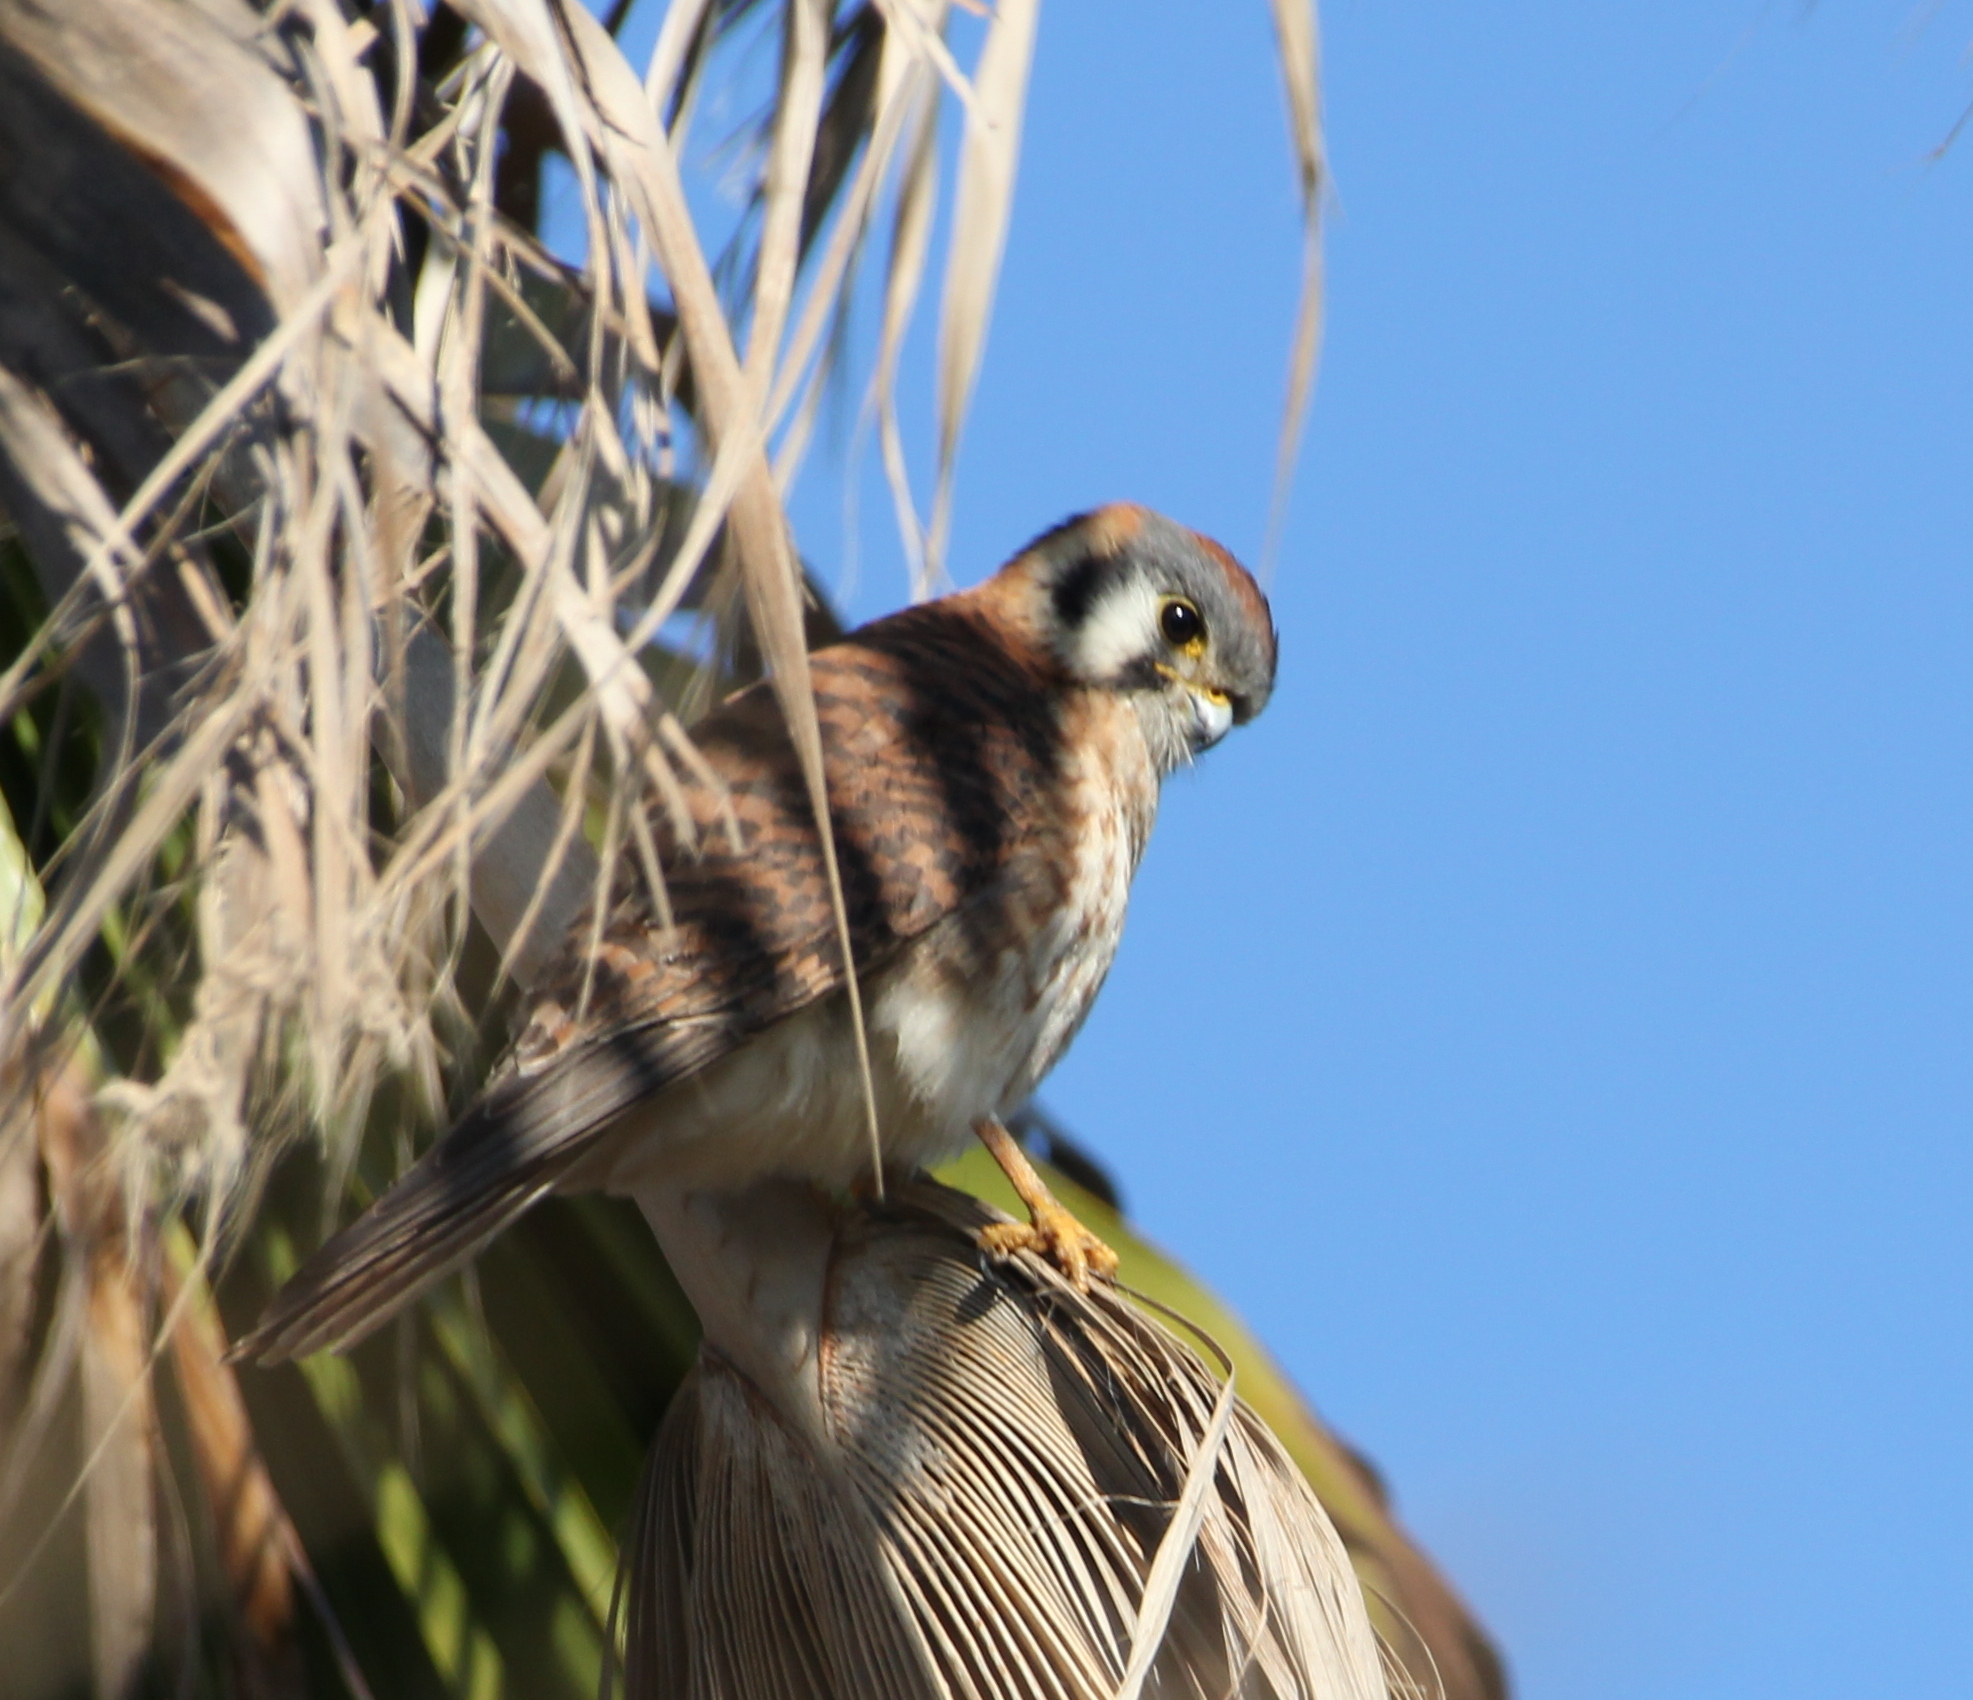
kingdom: Animalia
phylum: Chordata
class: Aves
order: Falconiformes
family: Falconidae
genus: Falco
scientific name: Falco sparverius
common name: American kestrel
